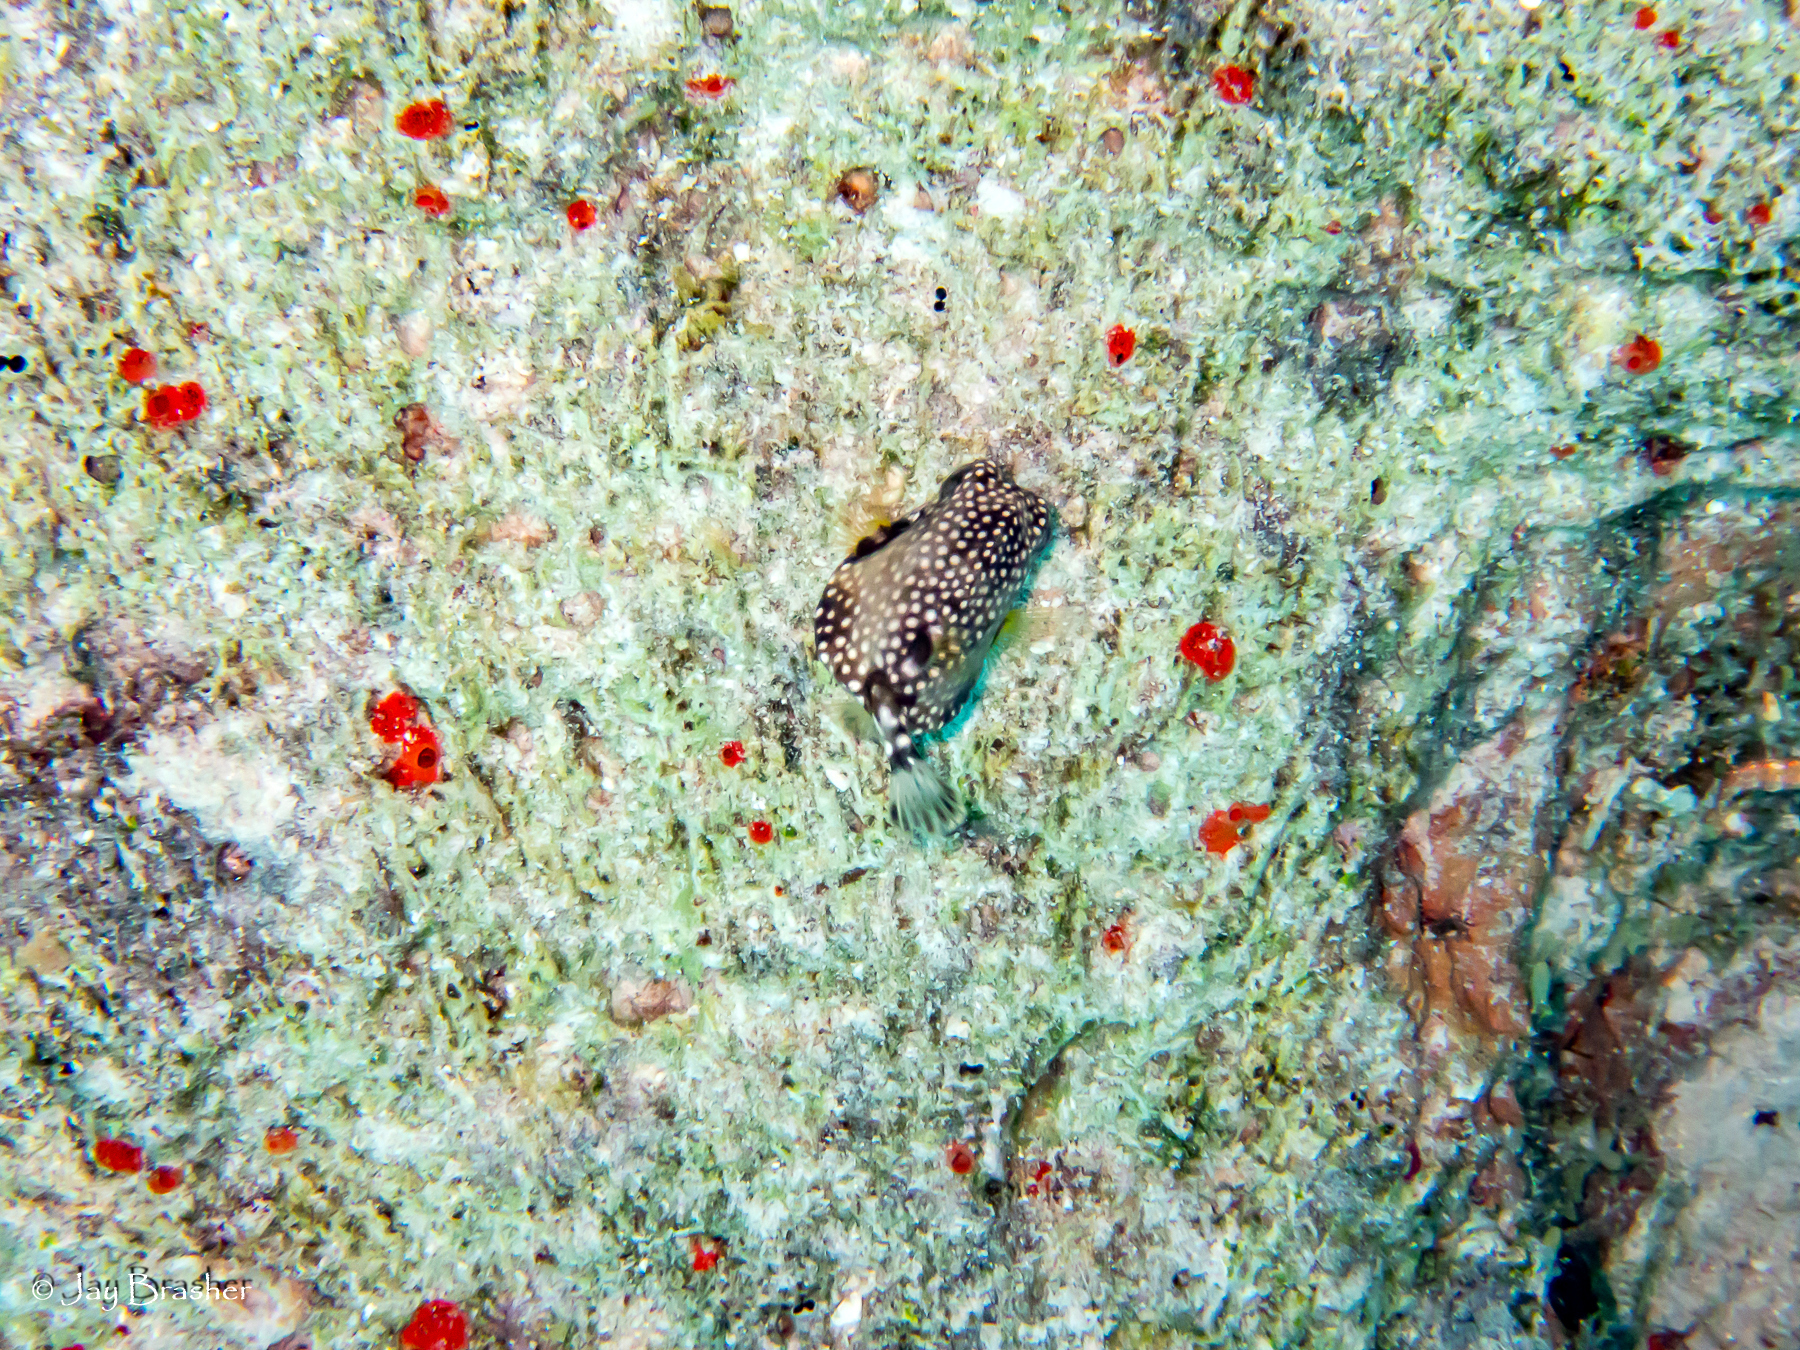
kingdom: Animalia
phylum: Porifera
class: Demospongiae
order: Clionaida
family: Clionaidae
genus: Cliothosa
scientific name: Cliothosa delitrix
